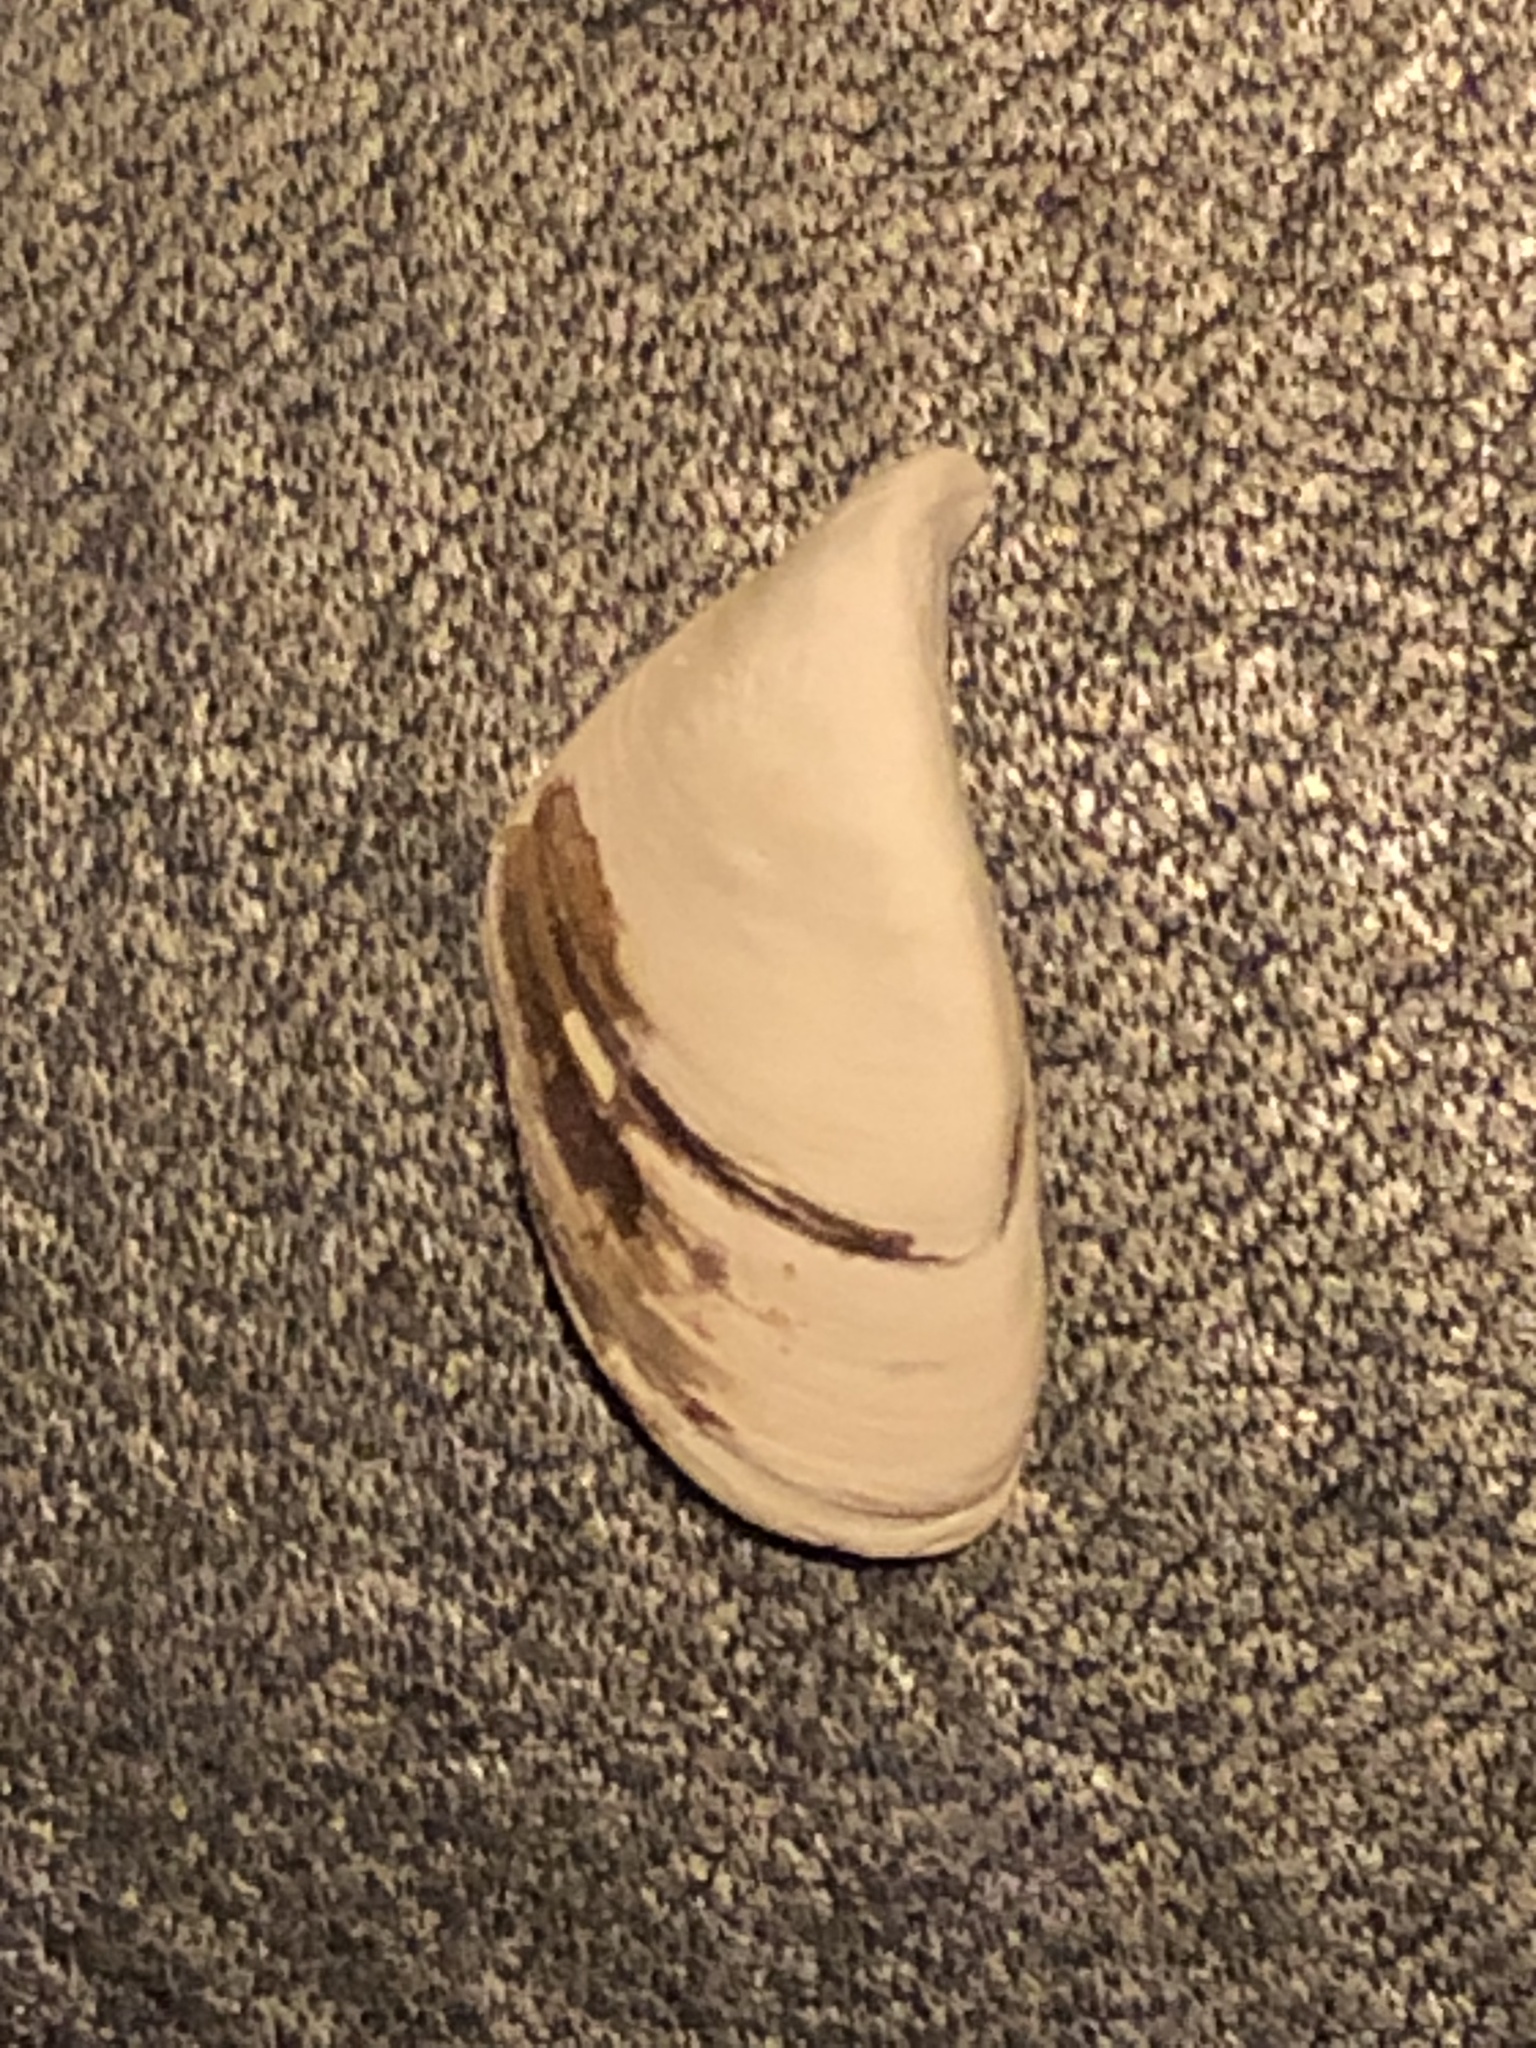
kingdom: Animalia
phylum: Mollusca
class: Bivalvia
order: Myida
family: Dreissenidae
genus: Dreissena
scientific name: Dreissena polymorpha
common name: Zebra mussel
